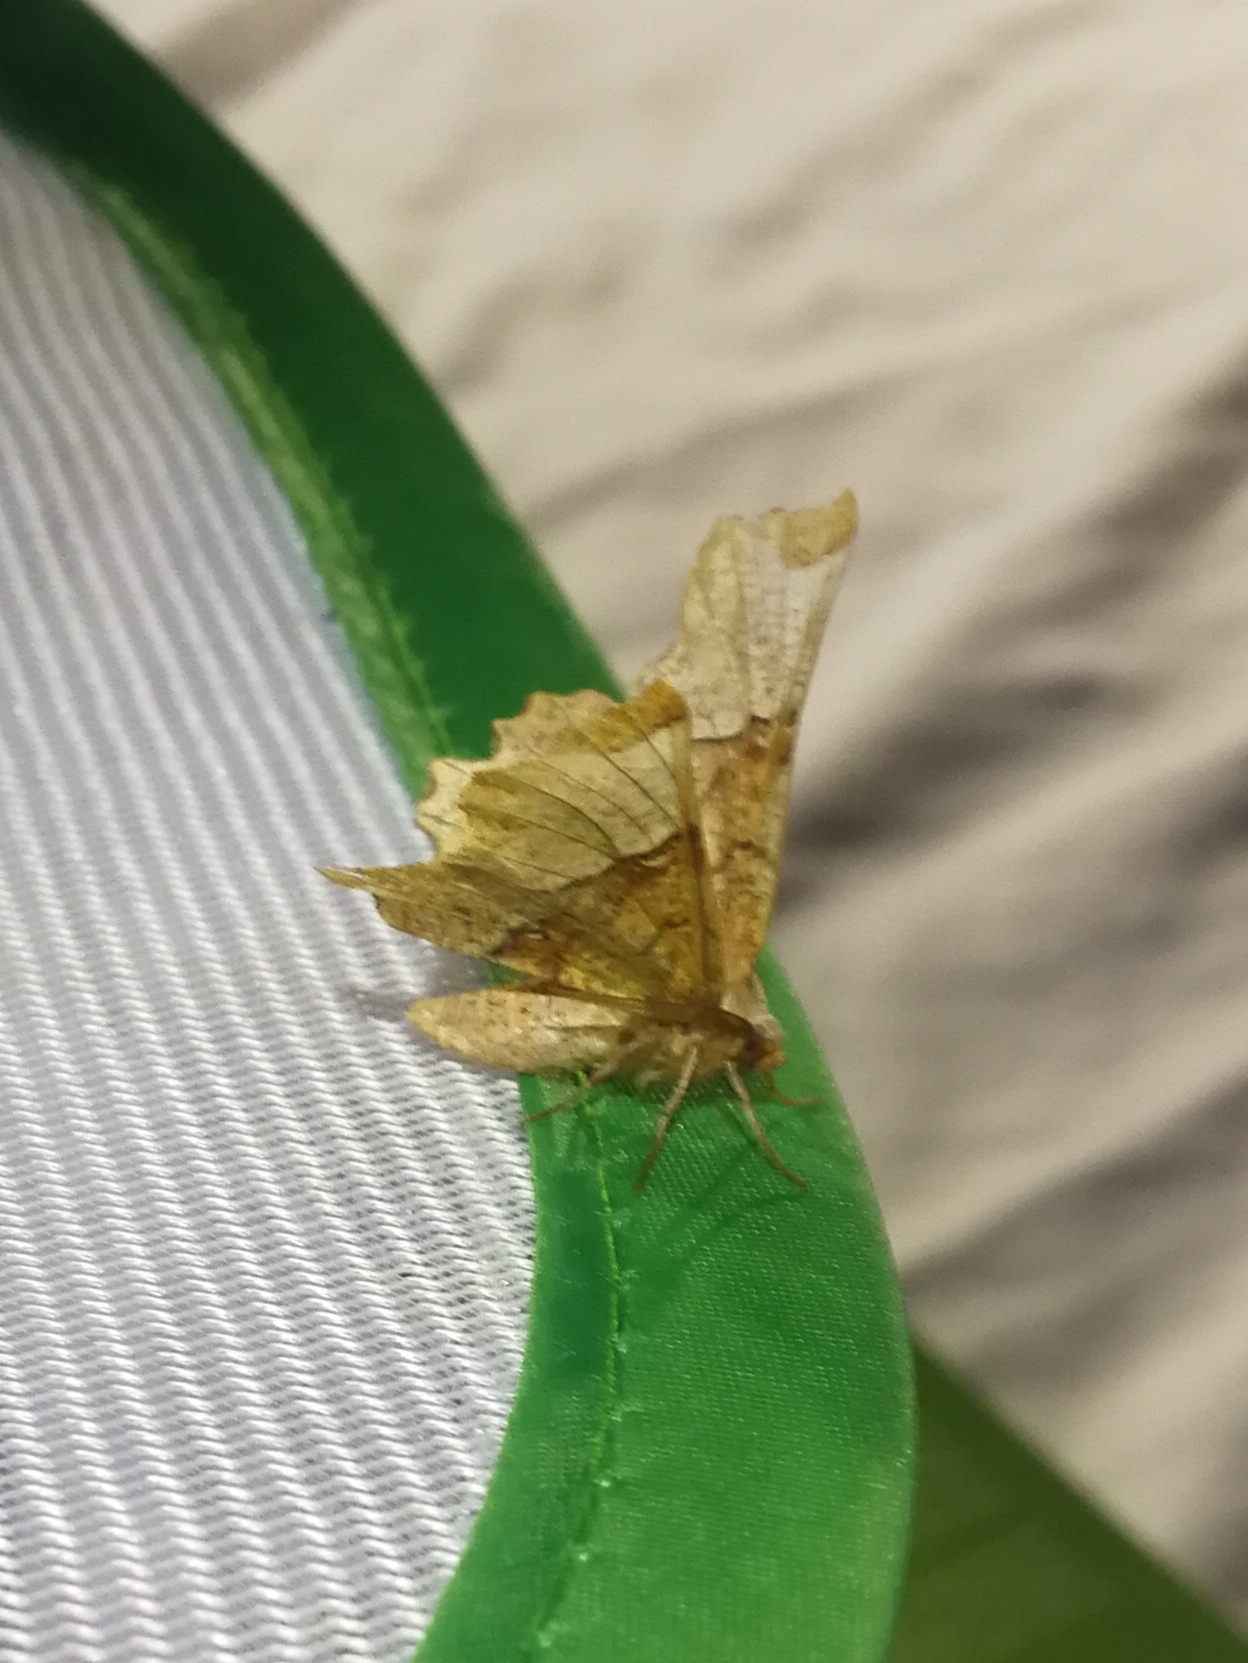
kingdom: Animalia
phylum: Arthropoda
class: Insecta
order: Lepidoptera
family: Geometridae
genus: Selenia
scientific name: Selenia lunularia
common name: Lunar thorn
